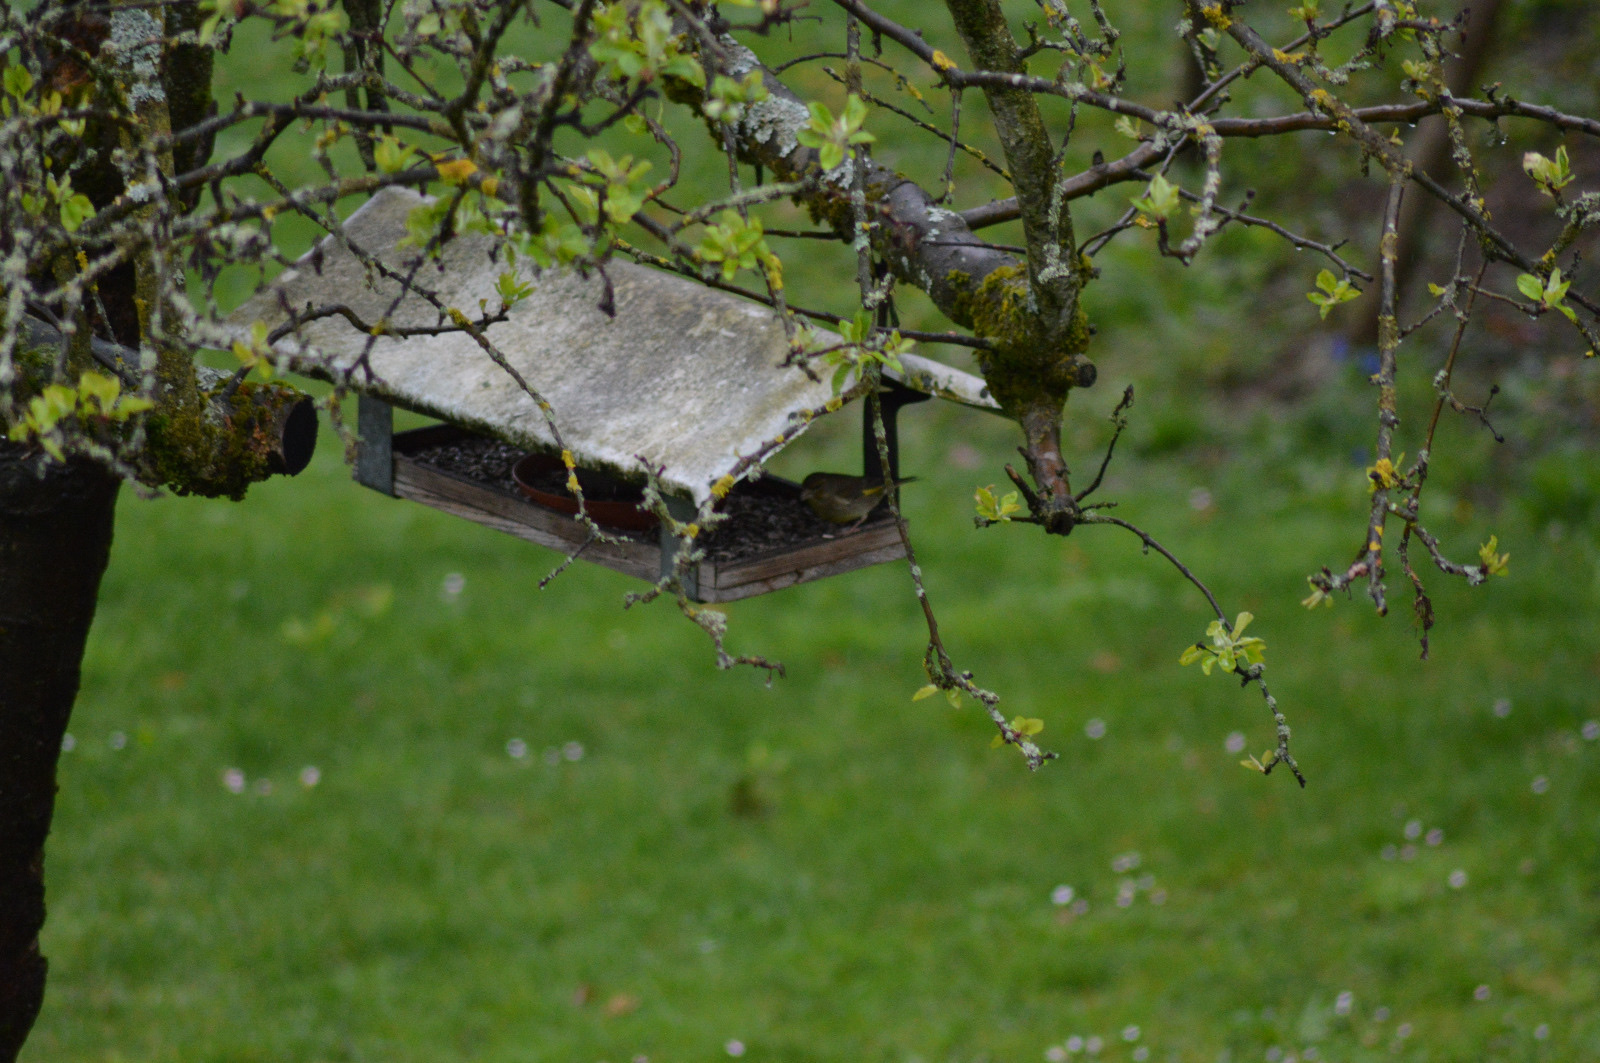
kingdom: Plantae
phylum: Tracheophyta
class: Liliopsida
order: Poales
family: Poaceae
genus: Chloris
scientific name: Chloris chloris
